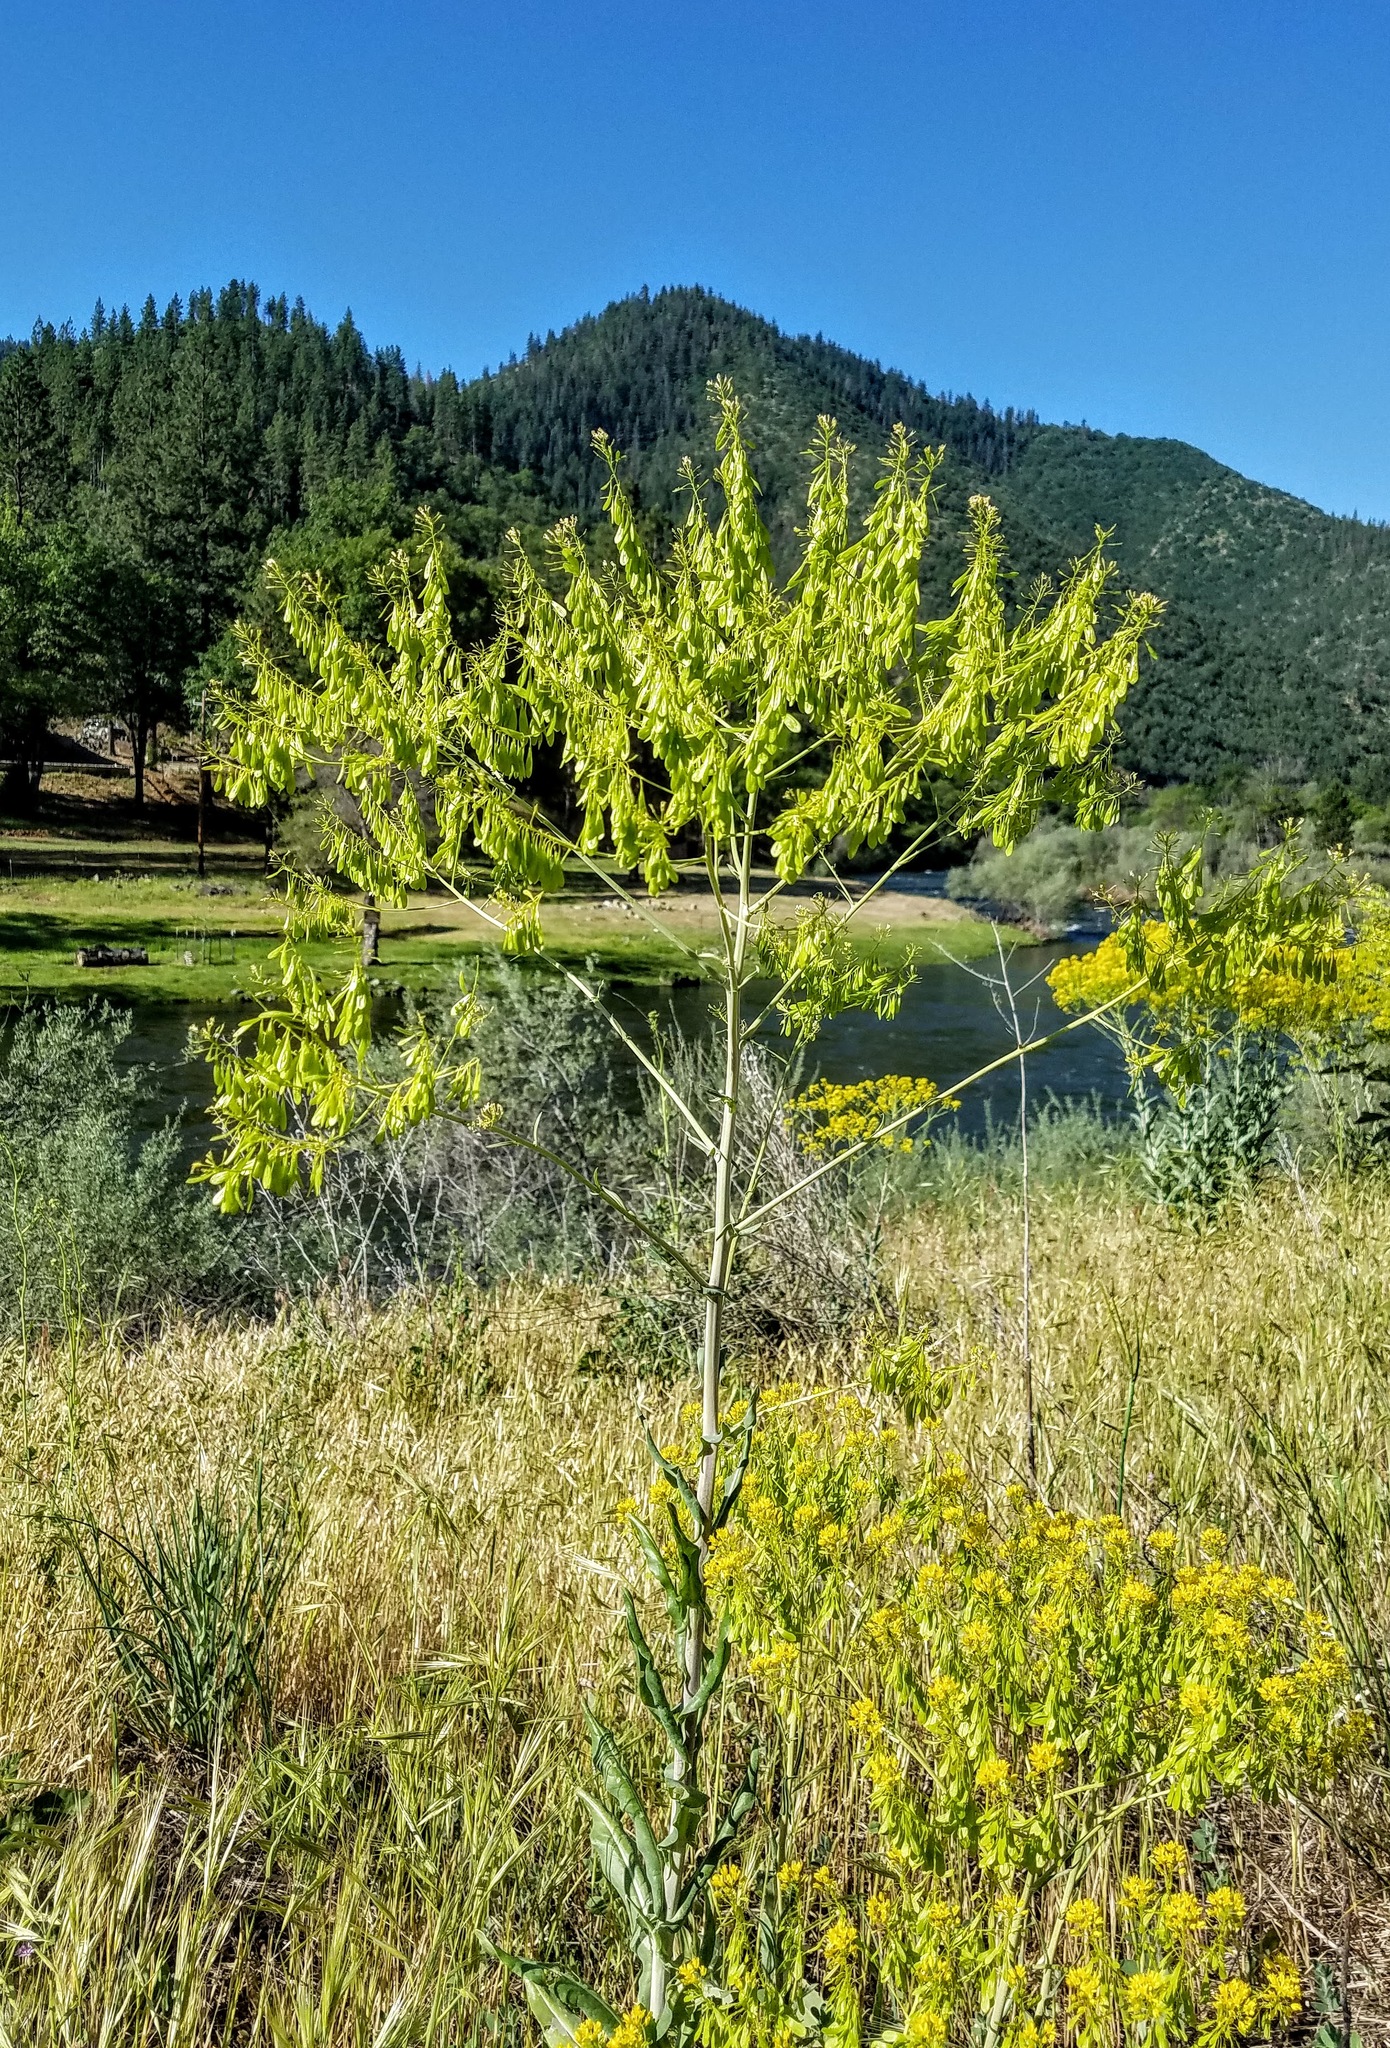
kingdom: Plantae
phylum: Tracheophyta
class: Magnoliopsida
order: Brassicales
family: Brassicaceae
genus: Isatis
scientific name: Isatis tinctoria
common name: Woad
